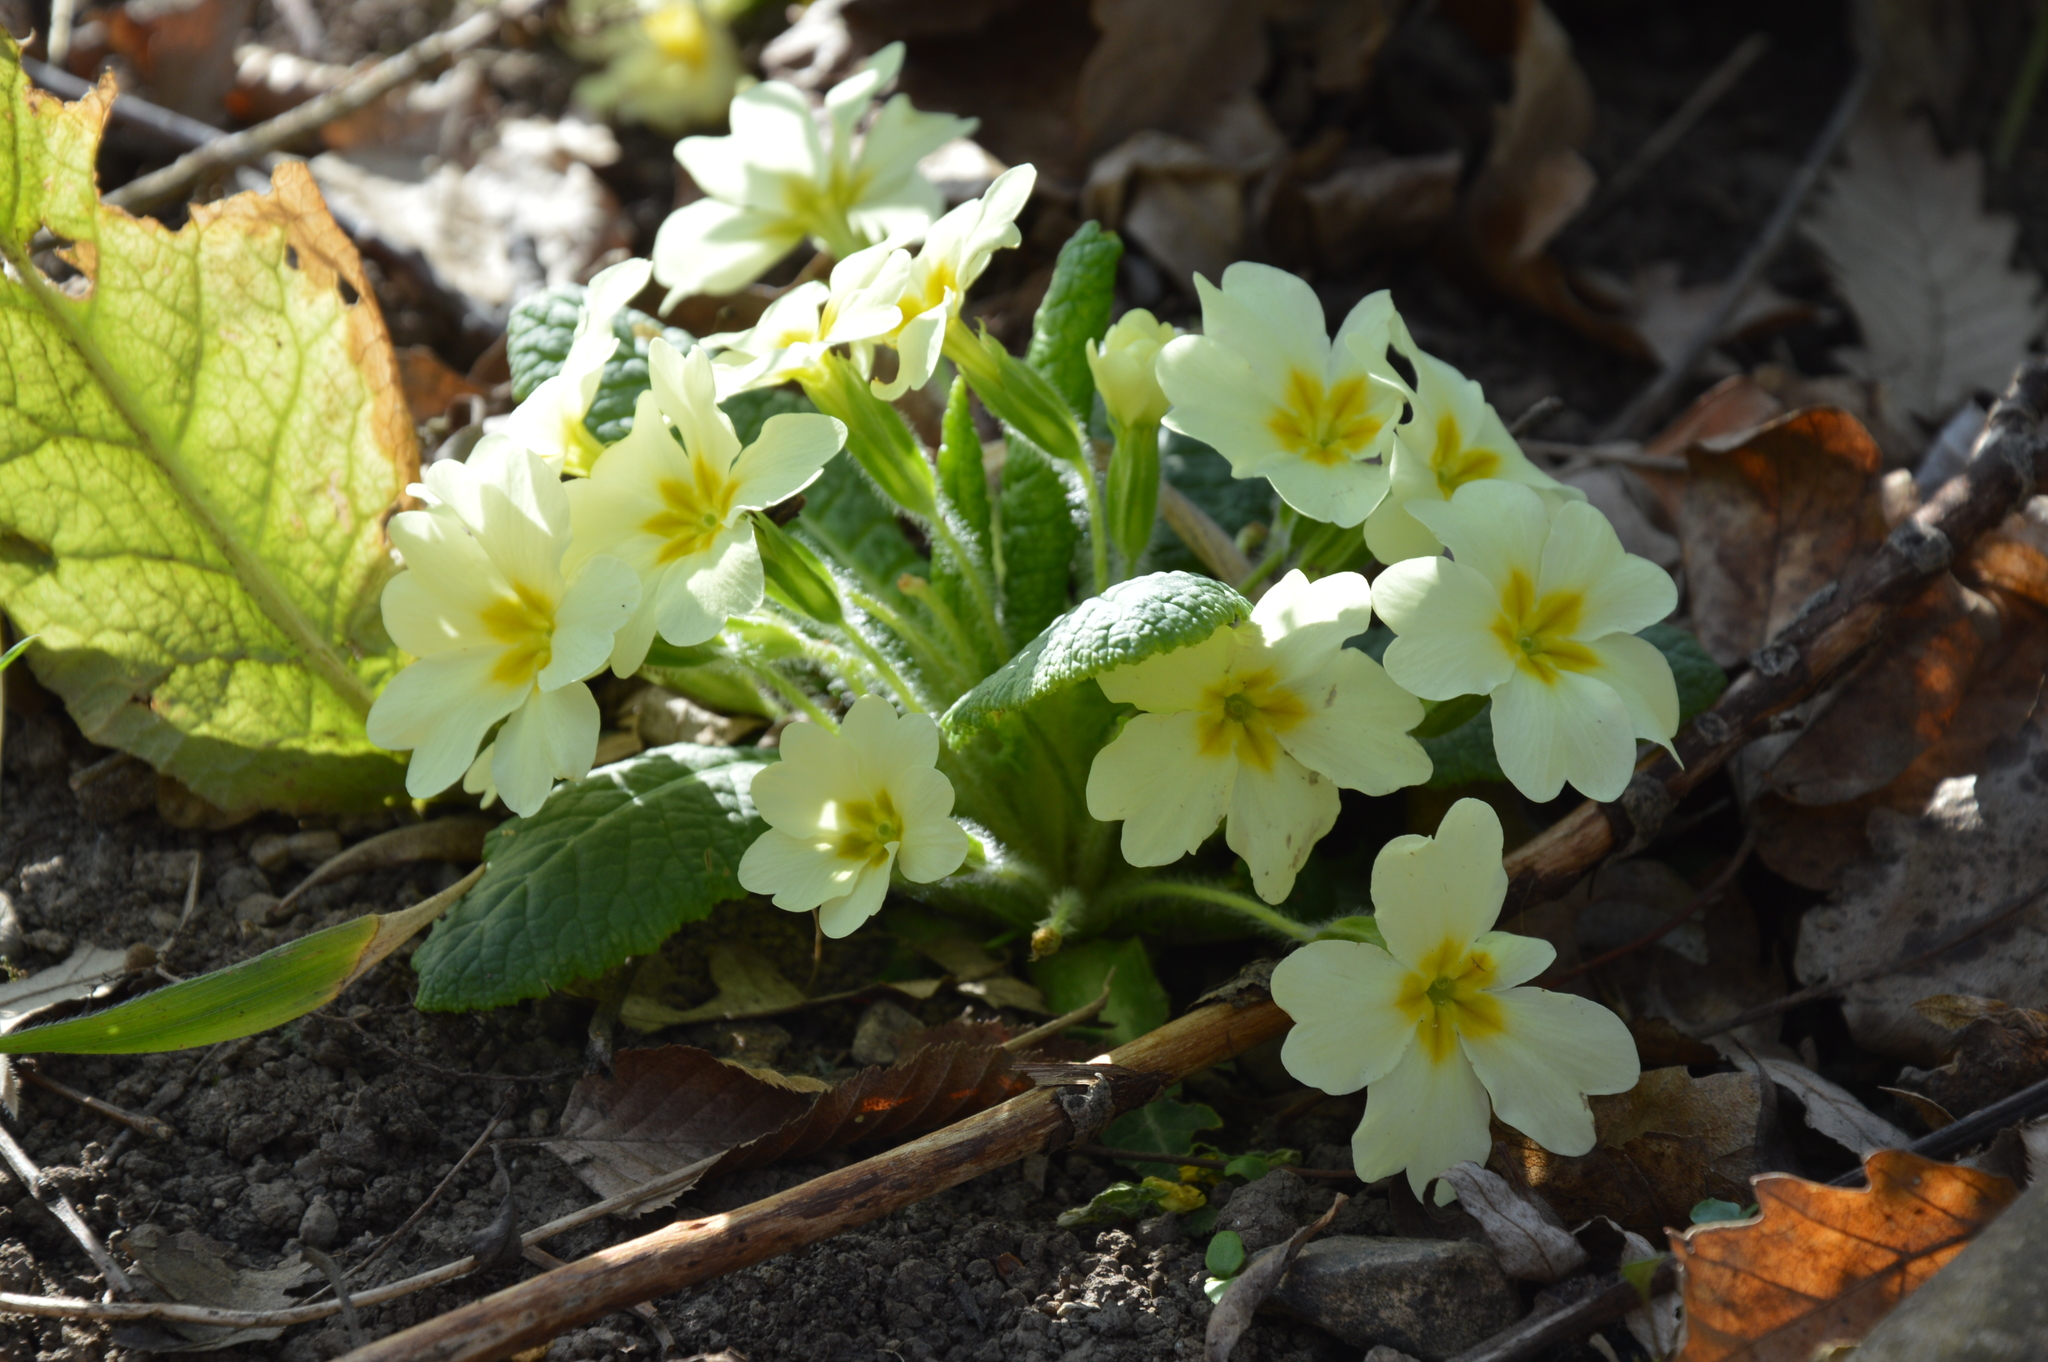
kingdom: Plantae
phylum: Tracheophyta
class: Magnoliopsida
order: Ericales
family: Primulaceae
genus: Primula
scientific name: Primula vulgaris
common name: Primrose
